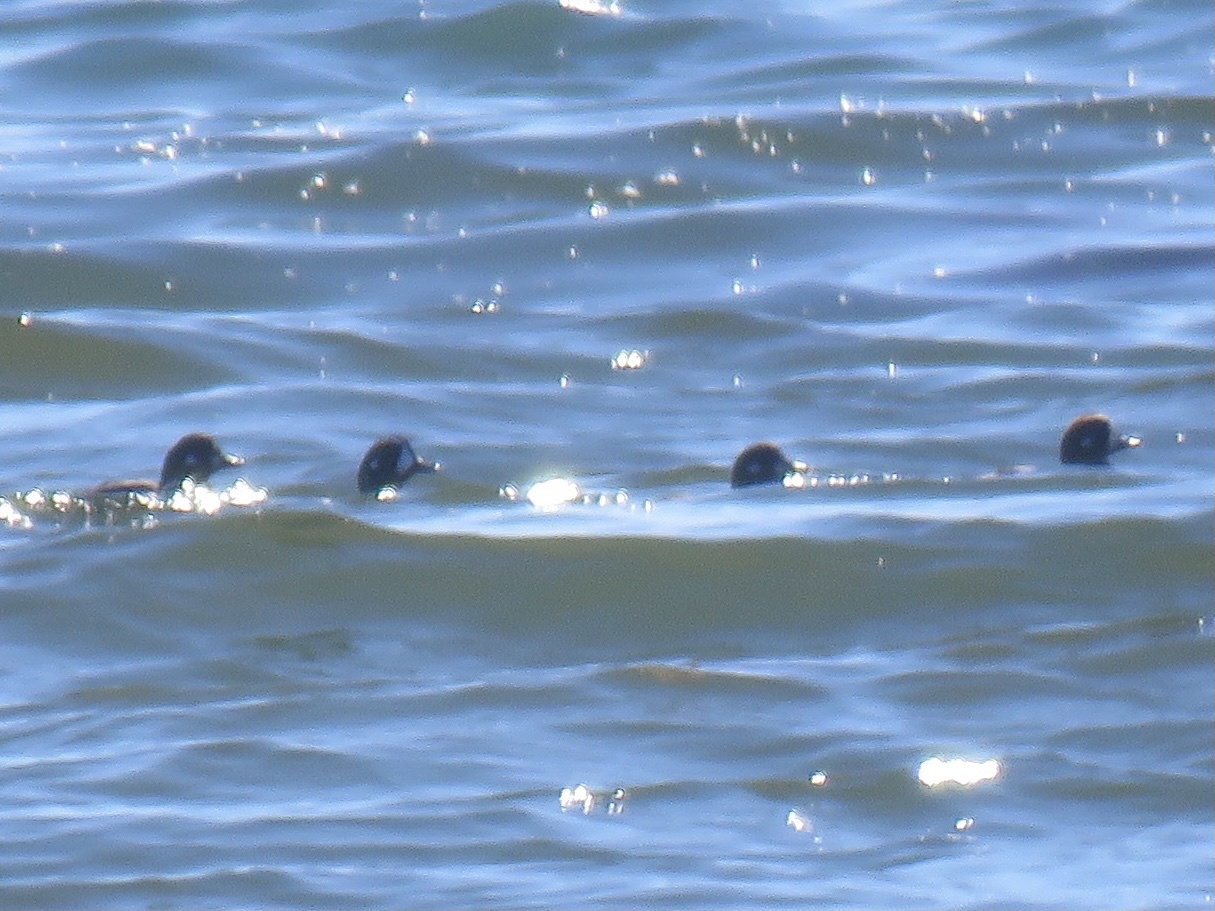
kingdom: Animalia
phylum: Chordata
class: Aves
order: Anseriformes
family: Anatidae
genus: Histrionicus
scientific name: Histrionicus histrionicus
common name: Harlequin duck
